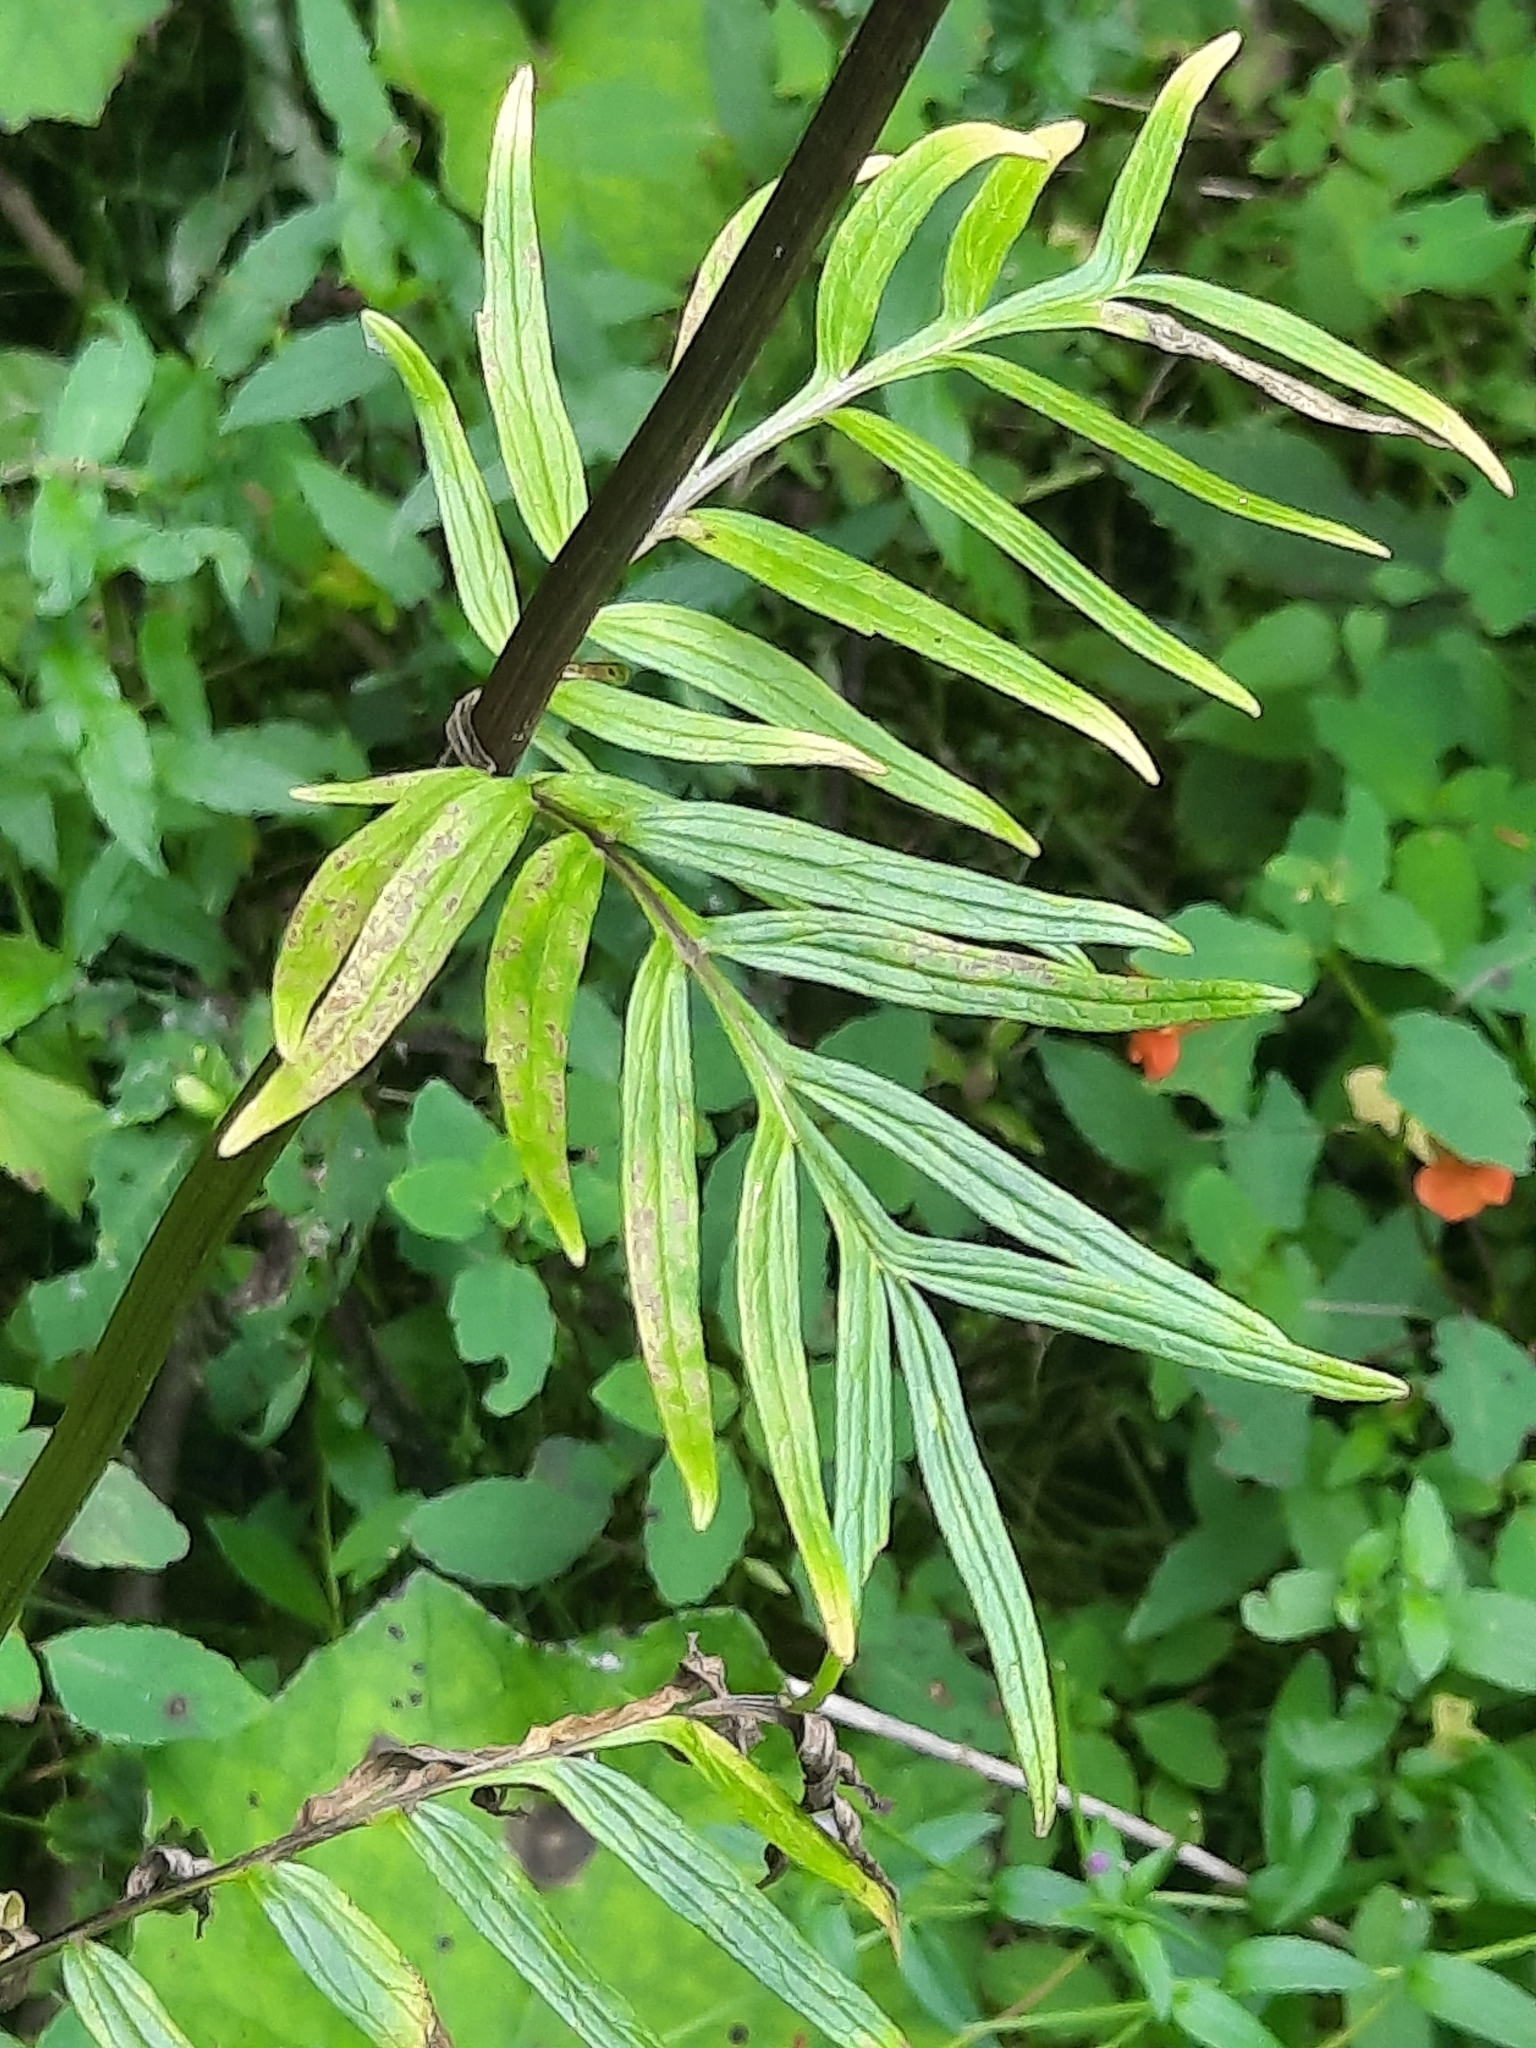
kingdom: Plantae
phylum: Tracheophyta
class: Magnoliopsida
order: Dipsacales
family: Caprifoliaceae
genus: Valeriana
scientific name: Valeriana officinalis
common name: Common valerian
